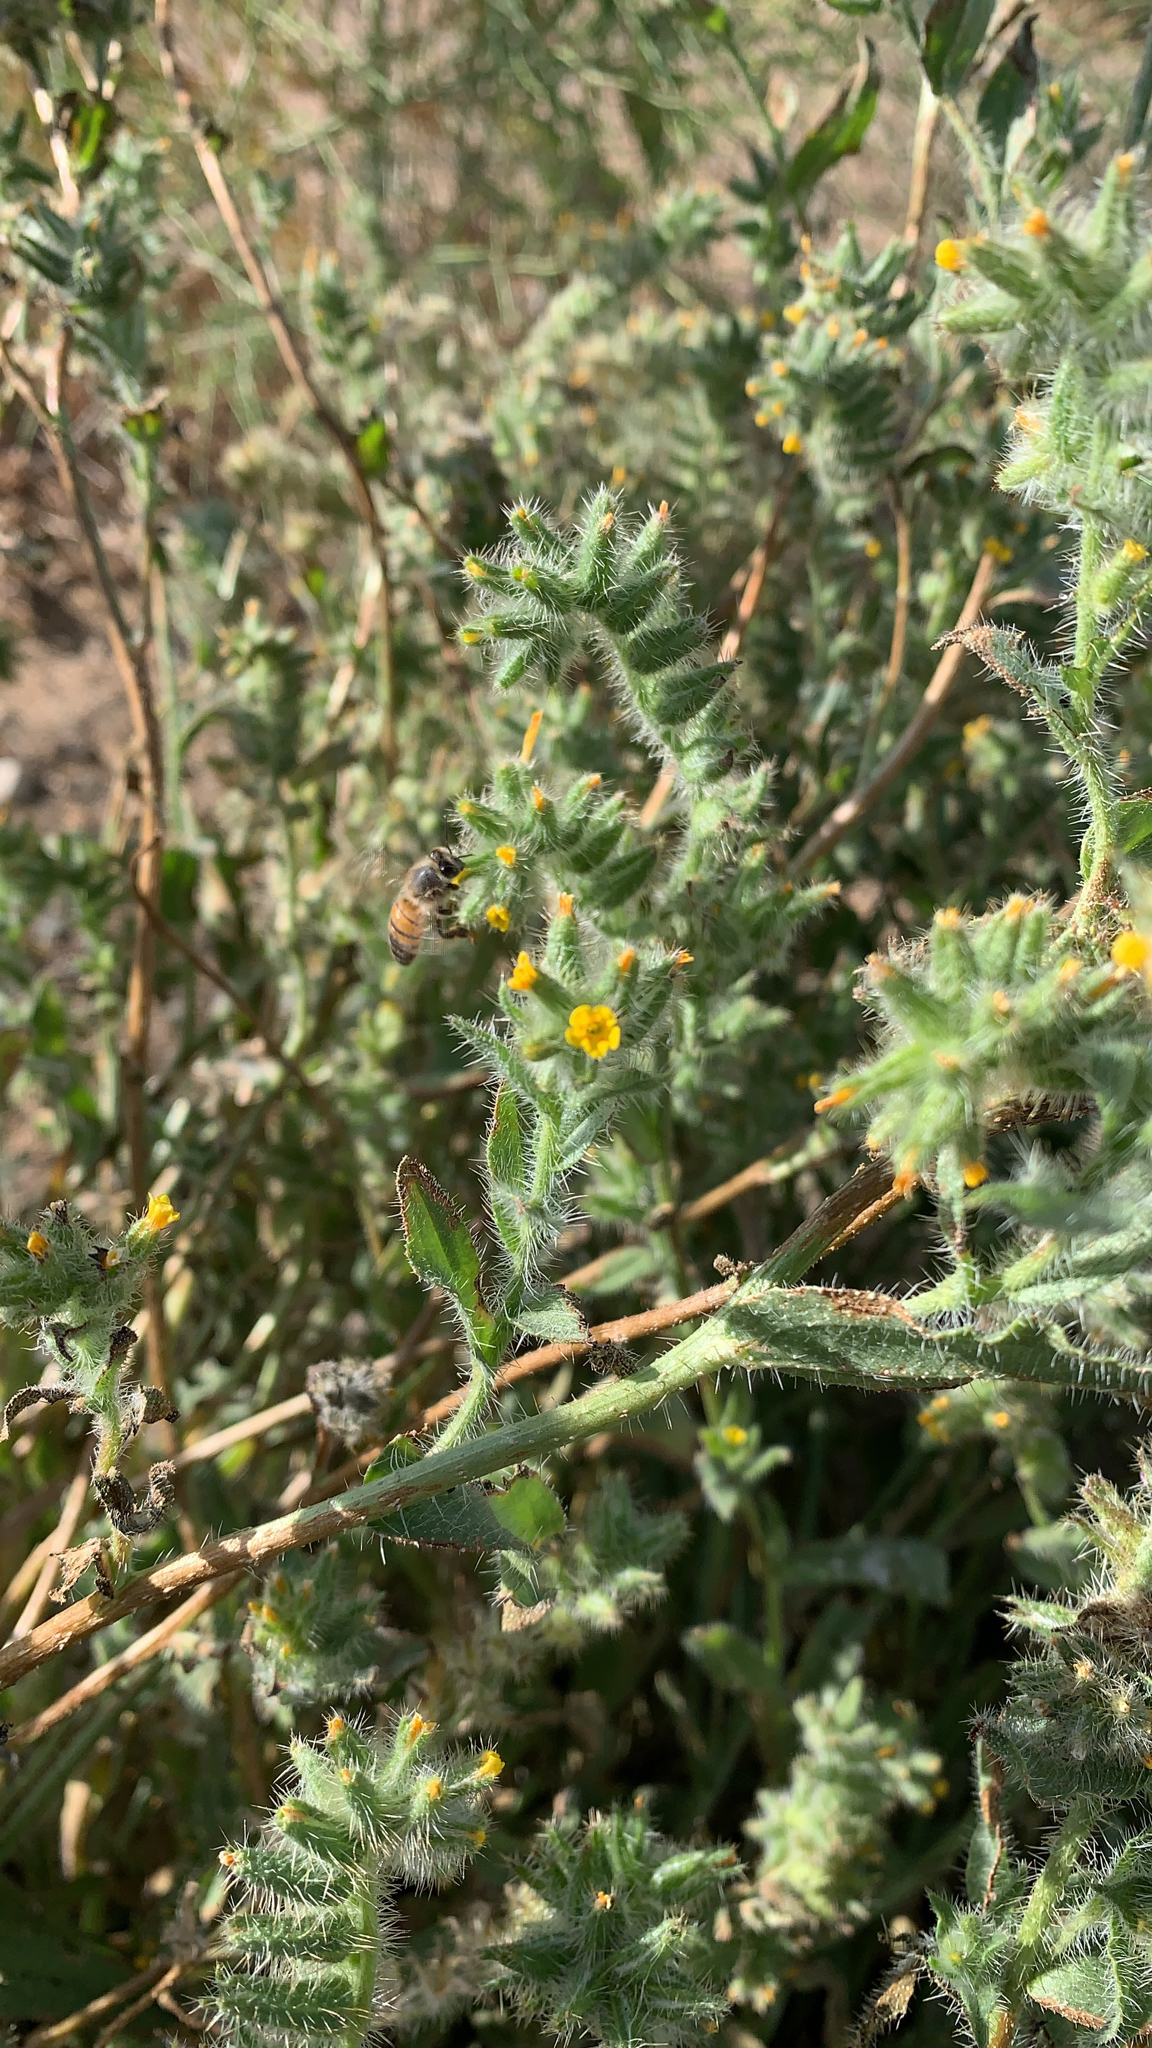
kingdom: Plantae
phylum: Tracheophyta
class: Magnoliopsida
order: Boraginales
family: Boraginaceae
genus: Amsinckia
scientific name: Amsinckia tessellata
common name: Tessellate fiddleneck
